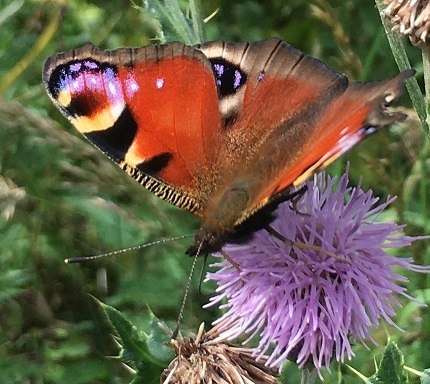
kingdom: Animalia
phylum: Arthropoda
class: Insecta
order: Lepidoptera
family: Nymphalidae
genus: Aglais
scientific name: Aglais io
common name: Peacock
